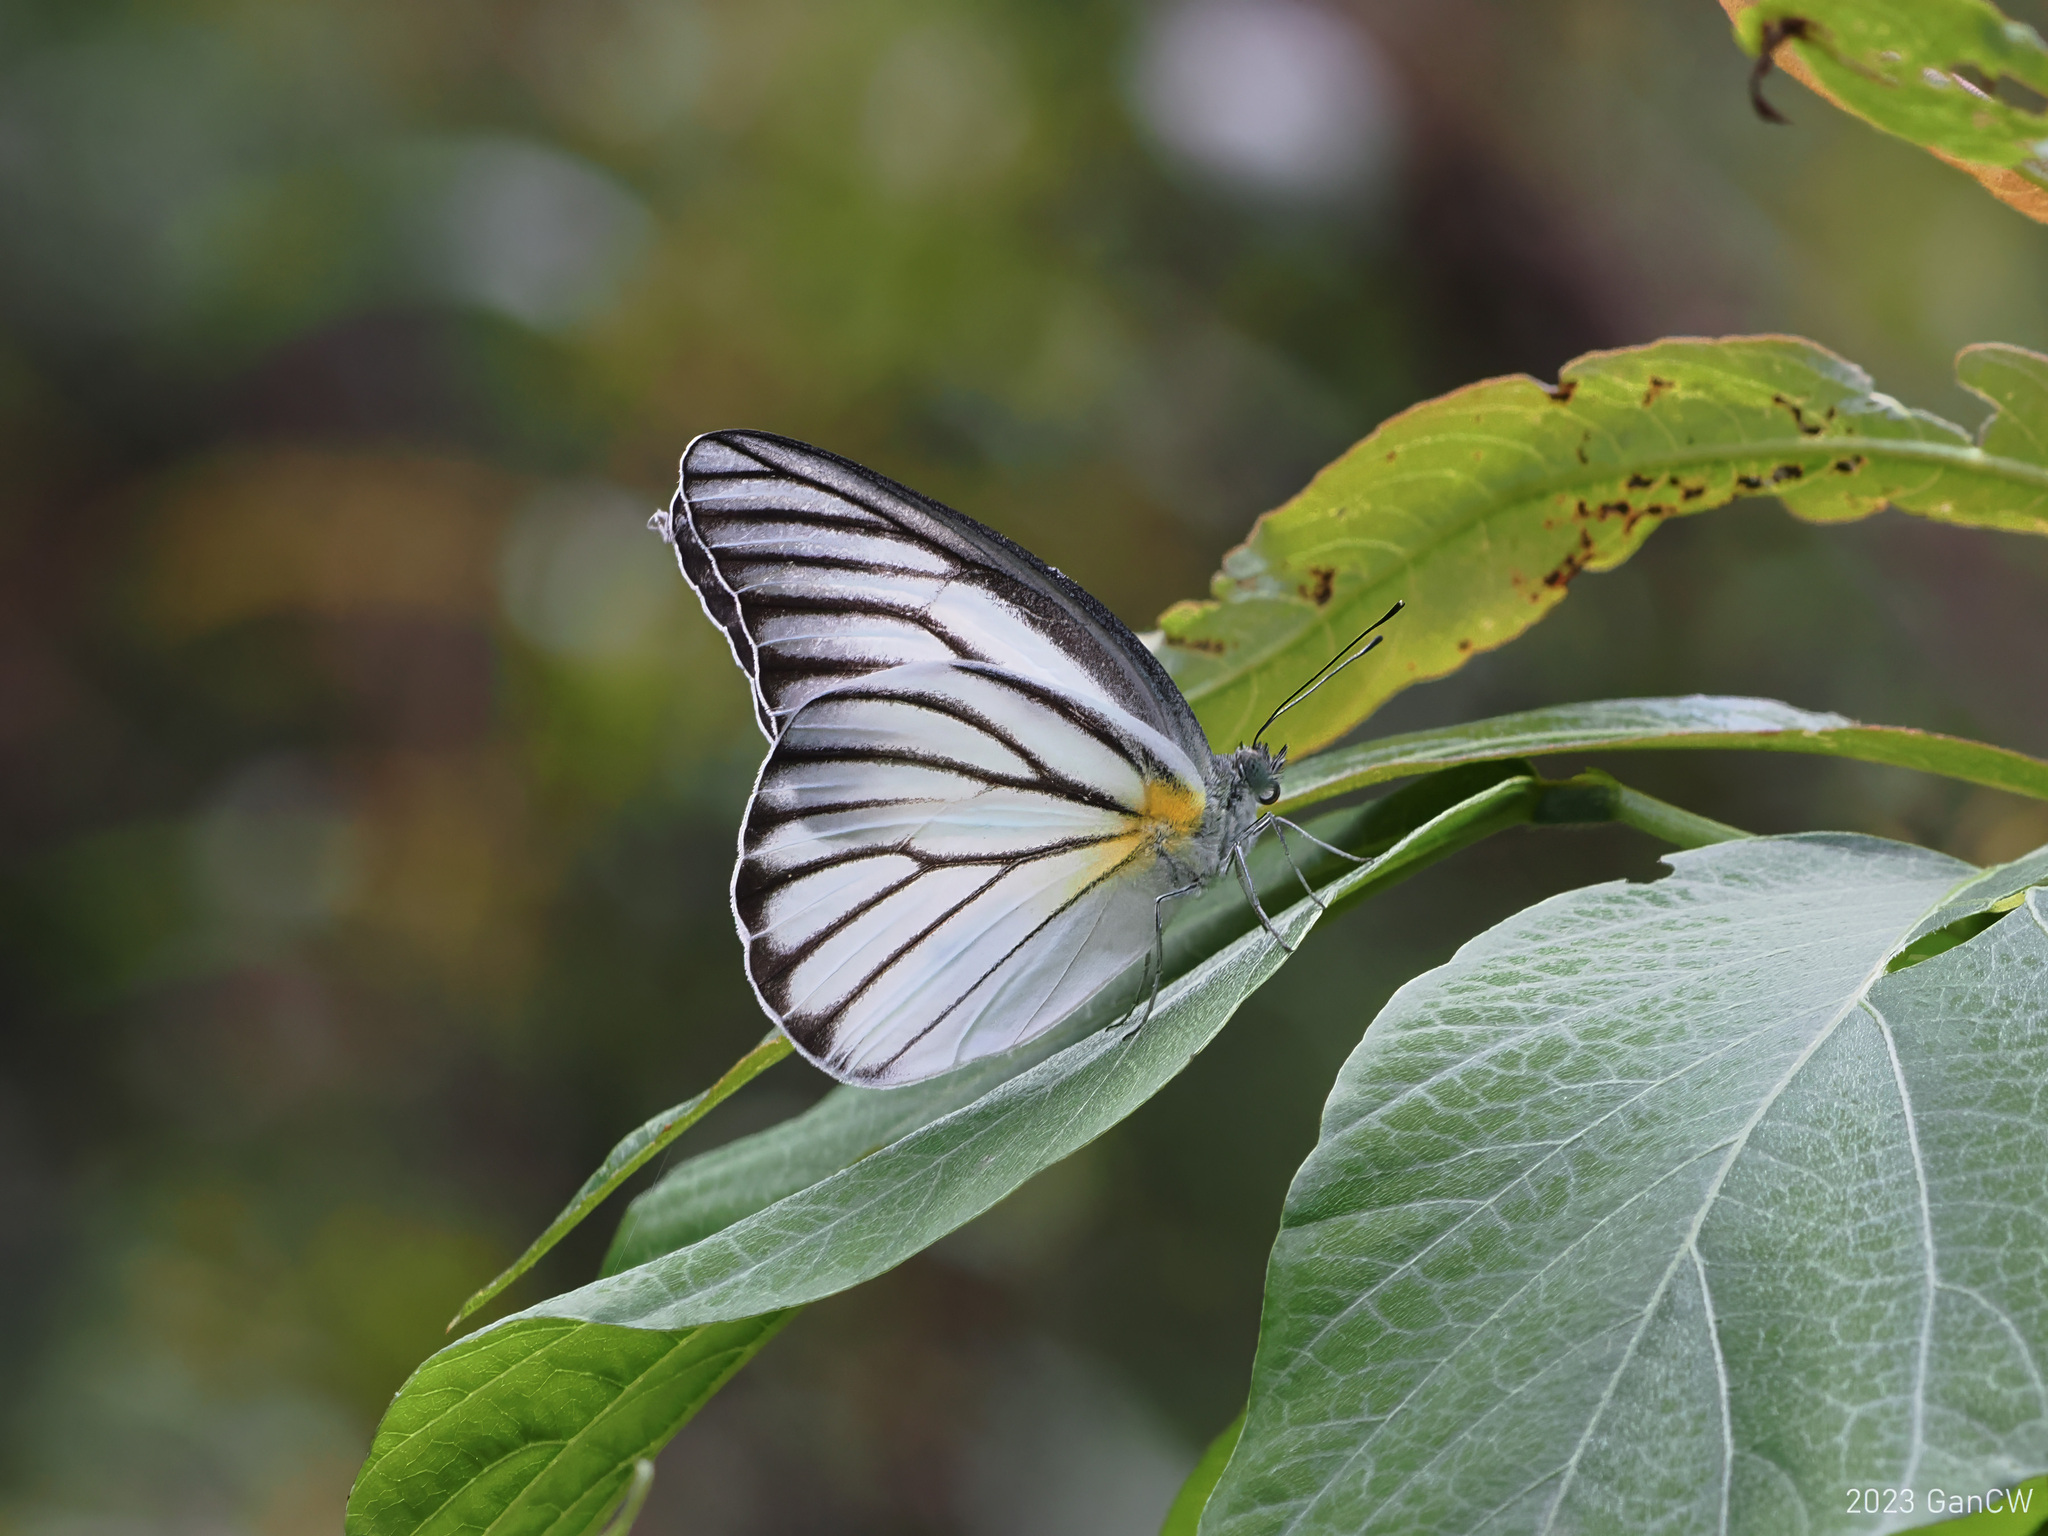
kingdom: Animalia
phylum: Arthropoda
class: Insecta
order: Lepidoptera
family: Pieridae
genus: Appias
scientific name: Appias hombroni
